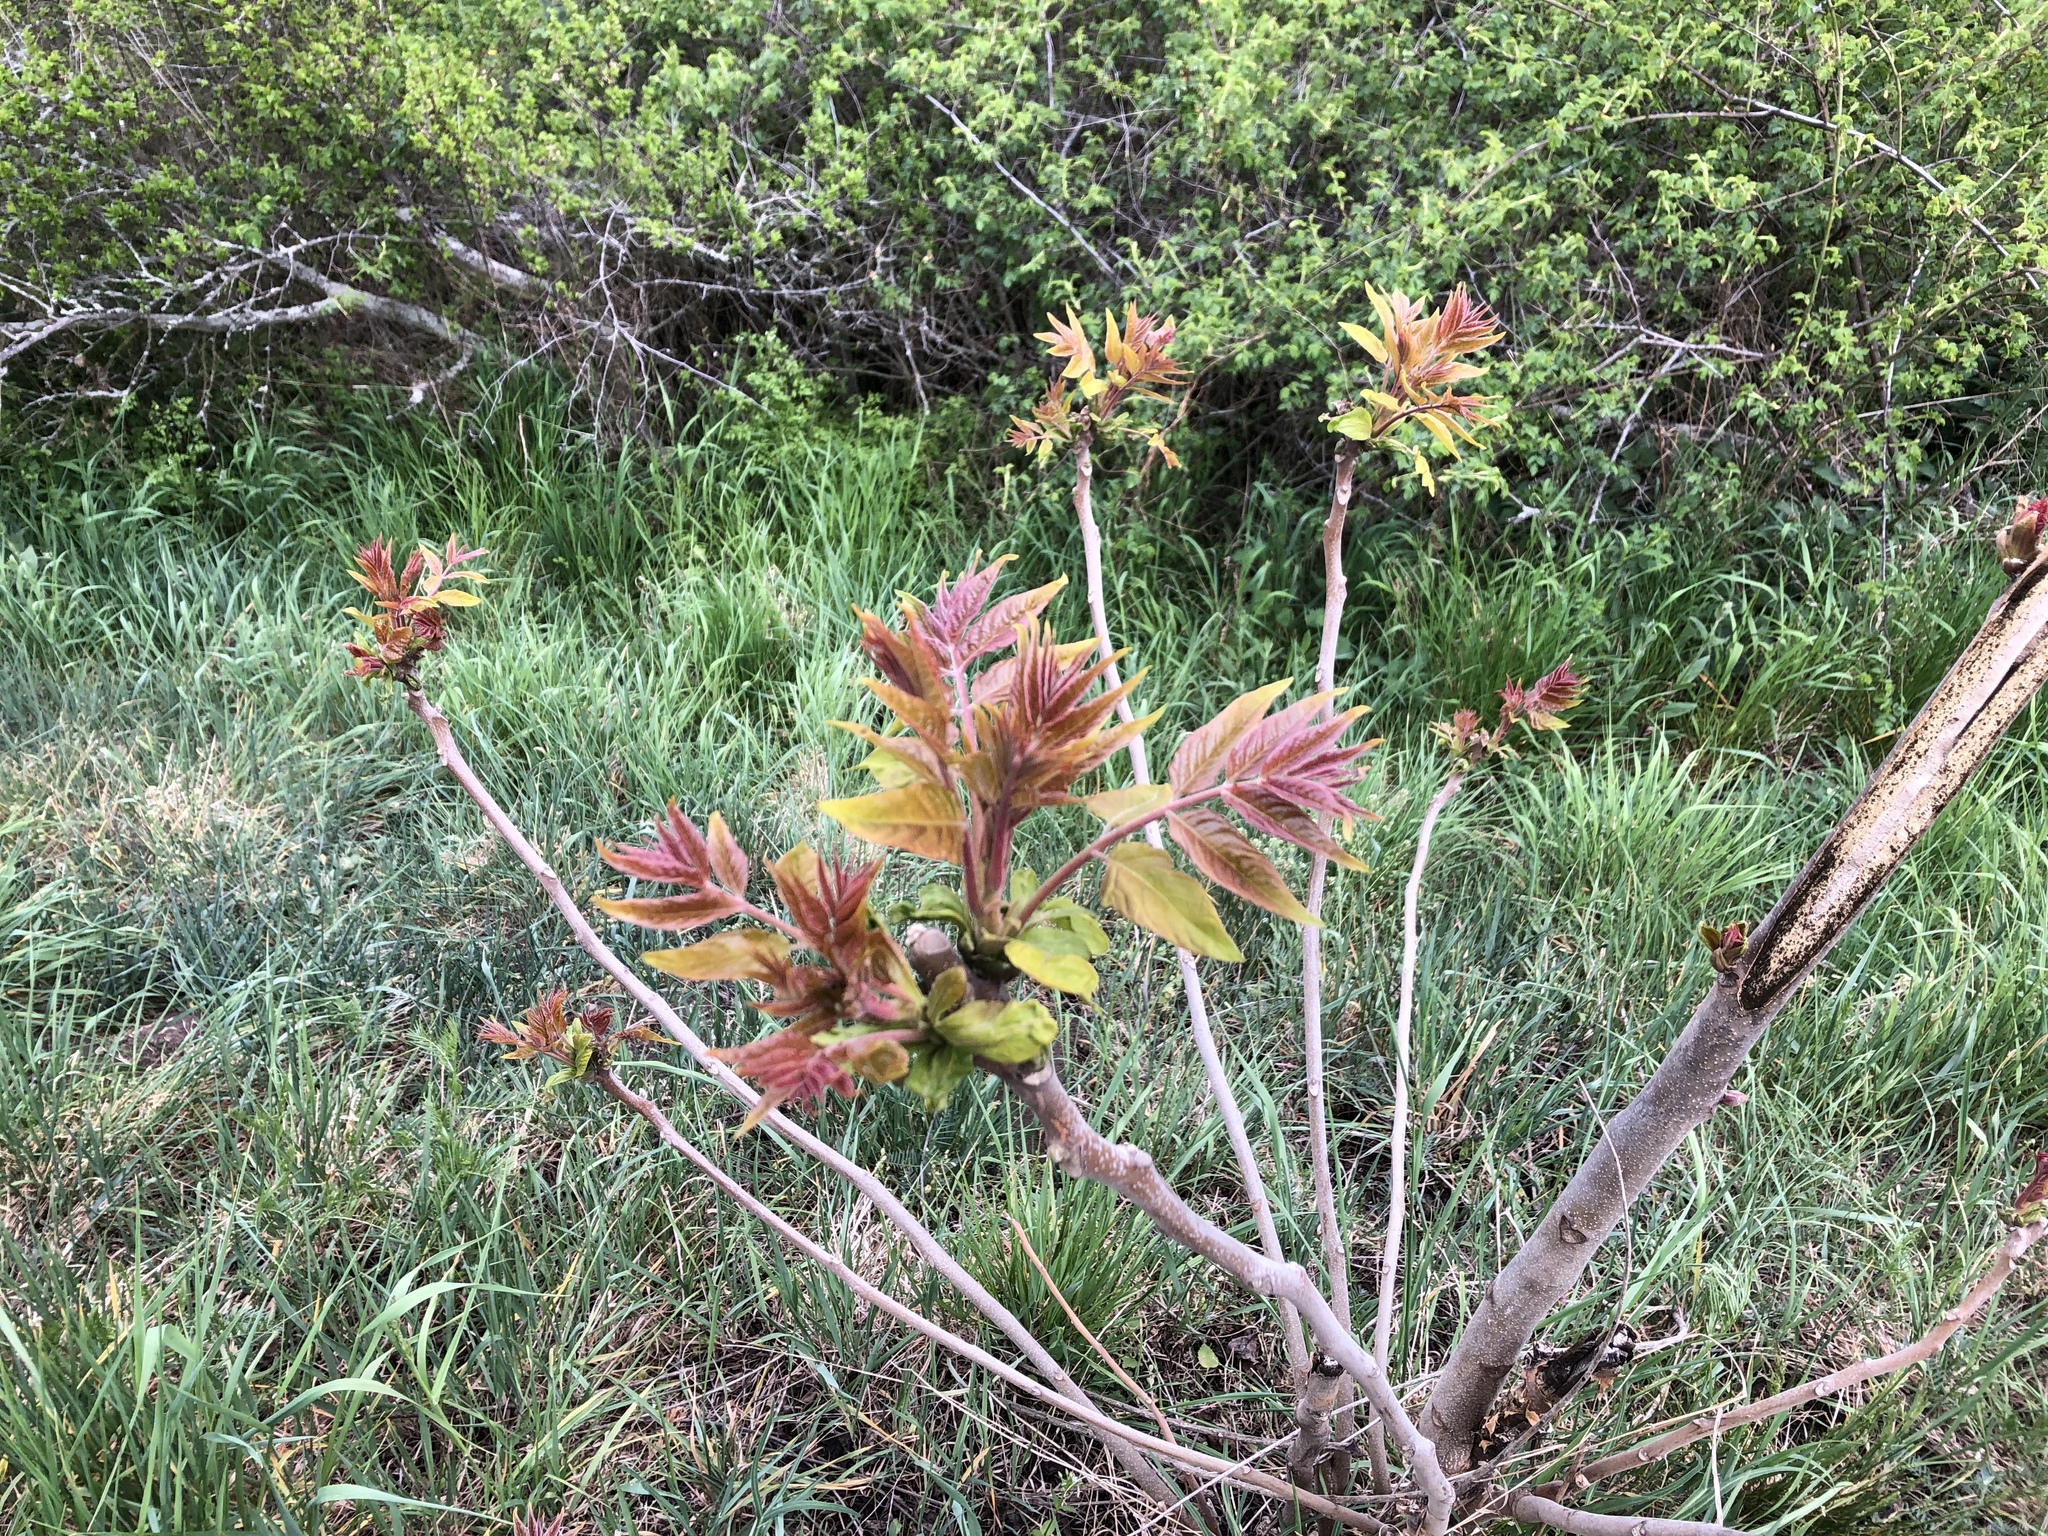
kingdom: Plantae
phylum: Tracheophyta
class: Magnoliopsida
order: Fagales
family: Juglandaceae
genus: Juglans
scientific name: Juglans regia
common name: Walnut
